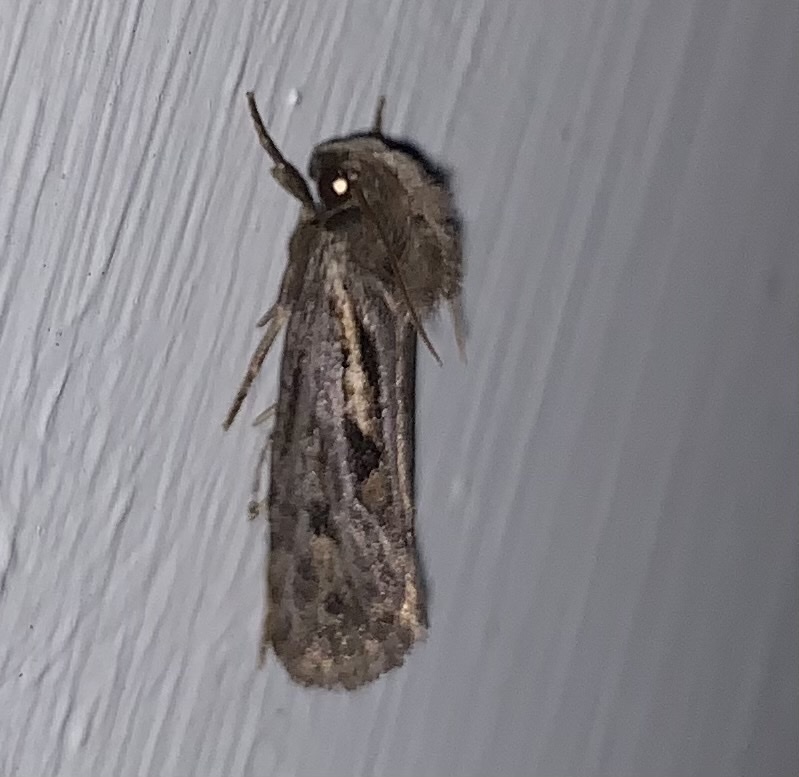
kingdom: Animalia
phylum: Arthropoda
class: Insecta
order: Lepidoptera
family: Tineidae
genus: Acrolophus
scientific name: Acrolophus popeanella
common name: Clemens' grass tubeworm moth
